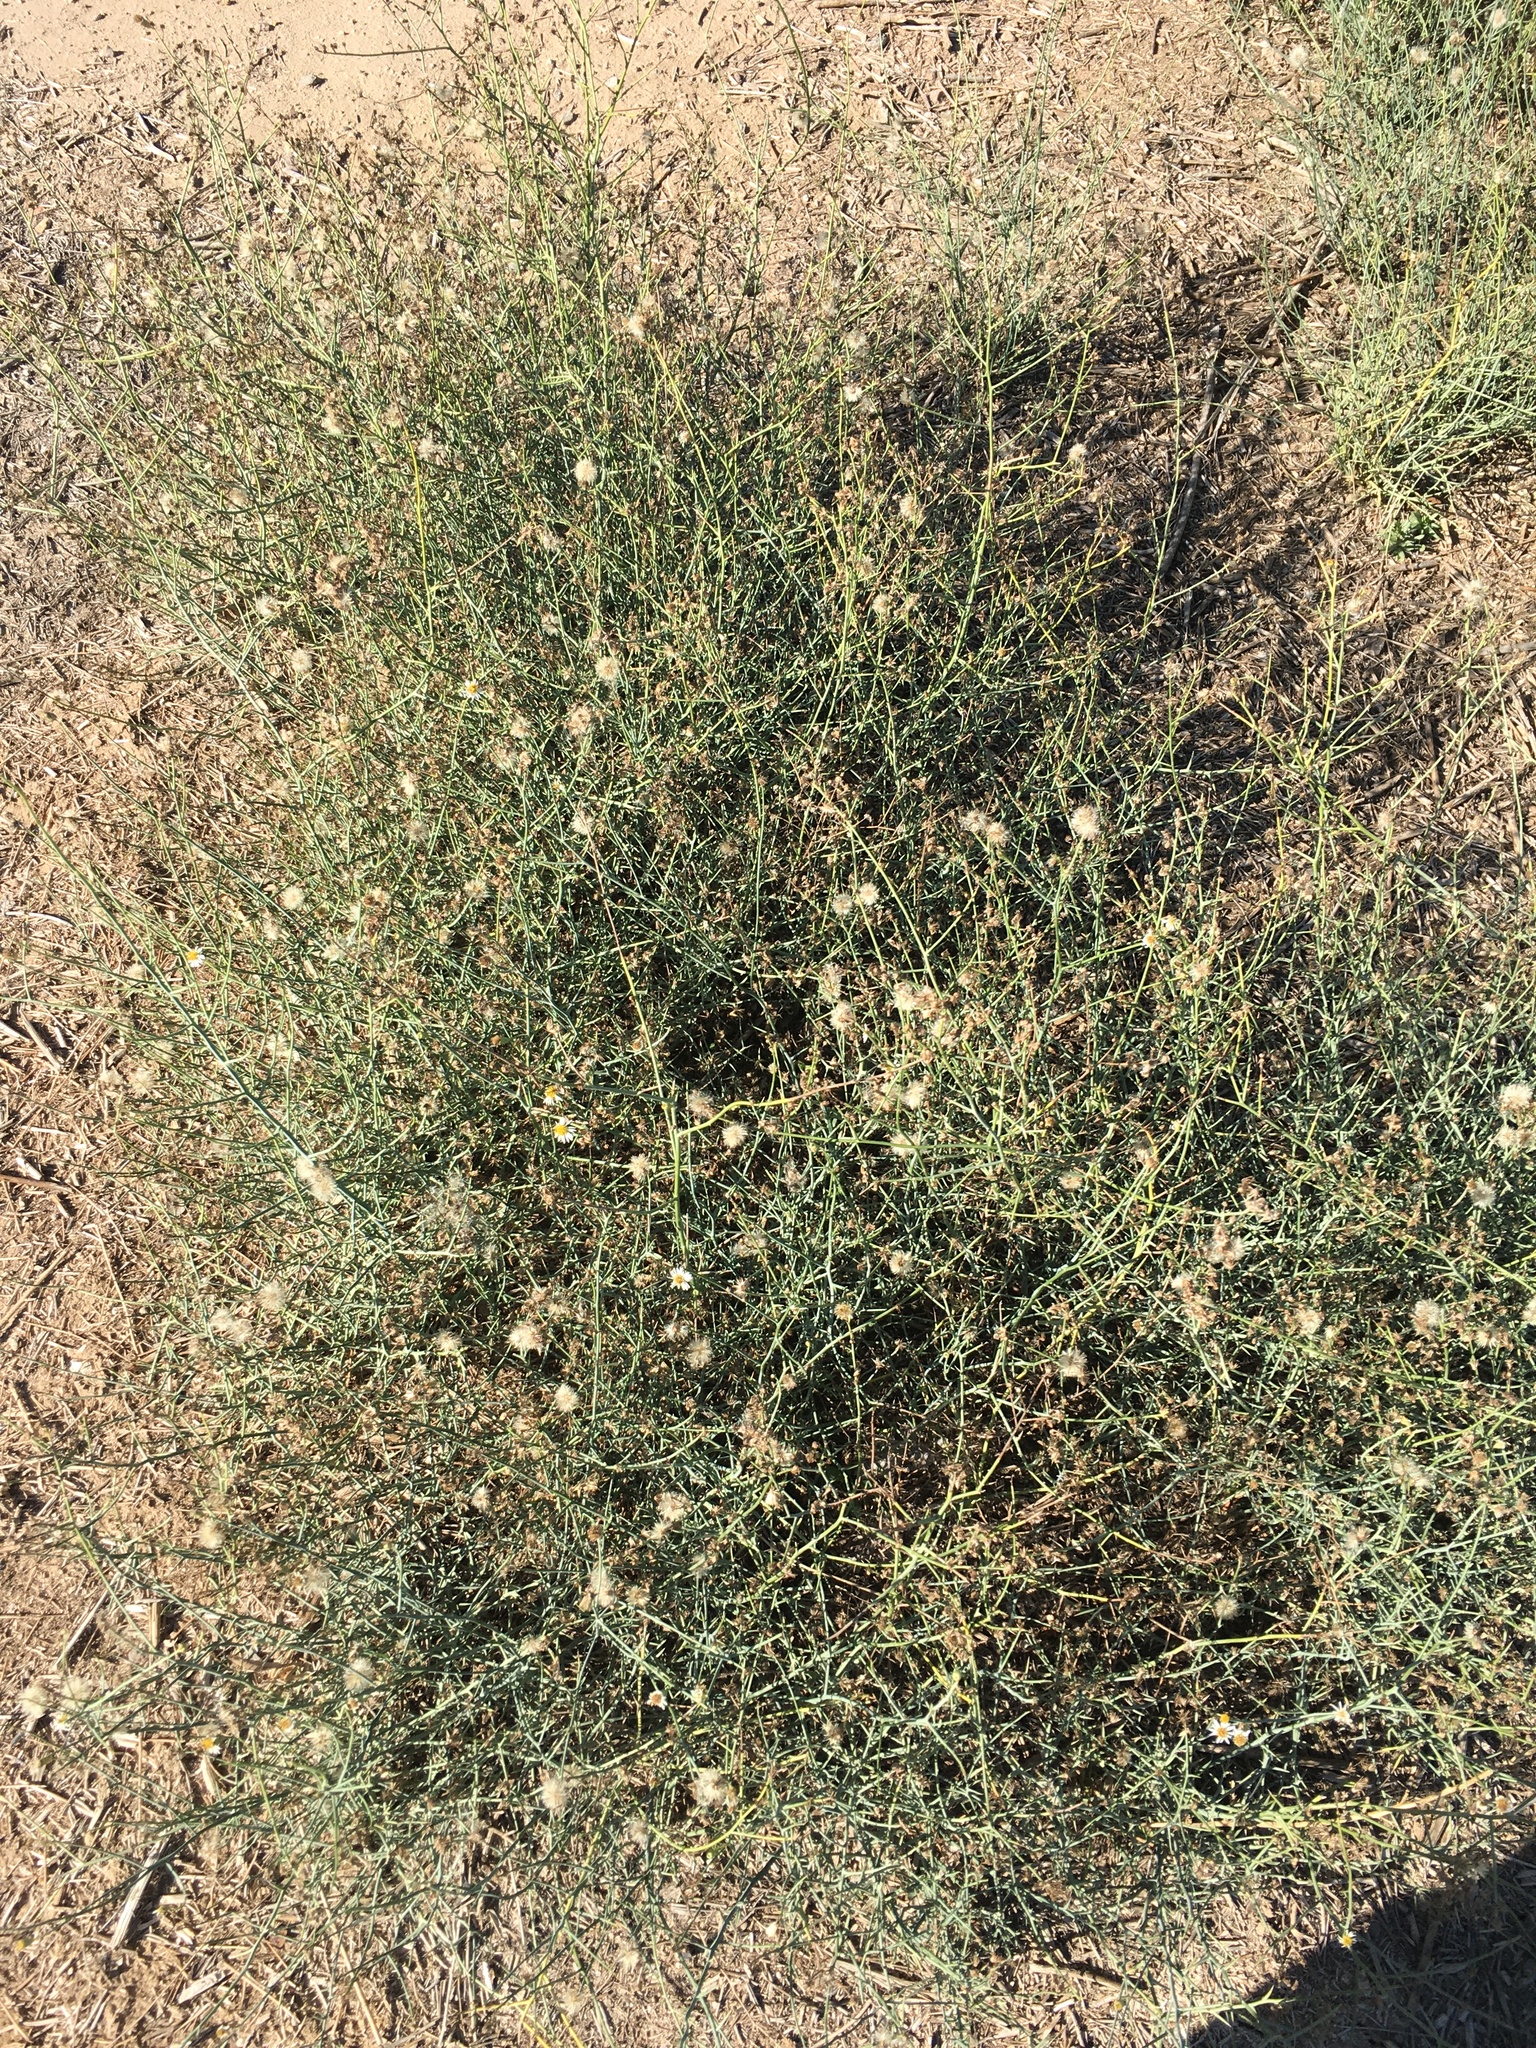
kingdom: Plantae
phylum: Tracheophyta
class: Magnoliopsida
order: Asterales
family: Asteraceae
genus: Chloracantha
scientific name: Chloracantha spinosa
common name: Mexican devilweed
